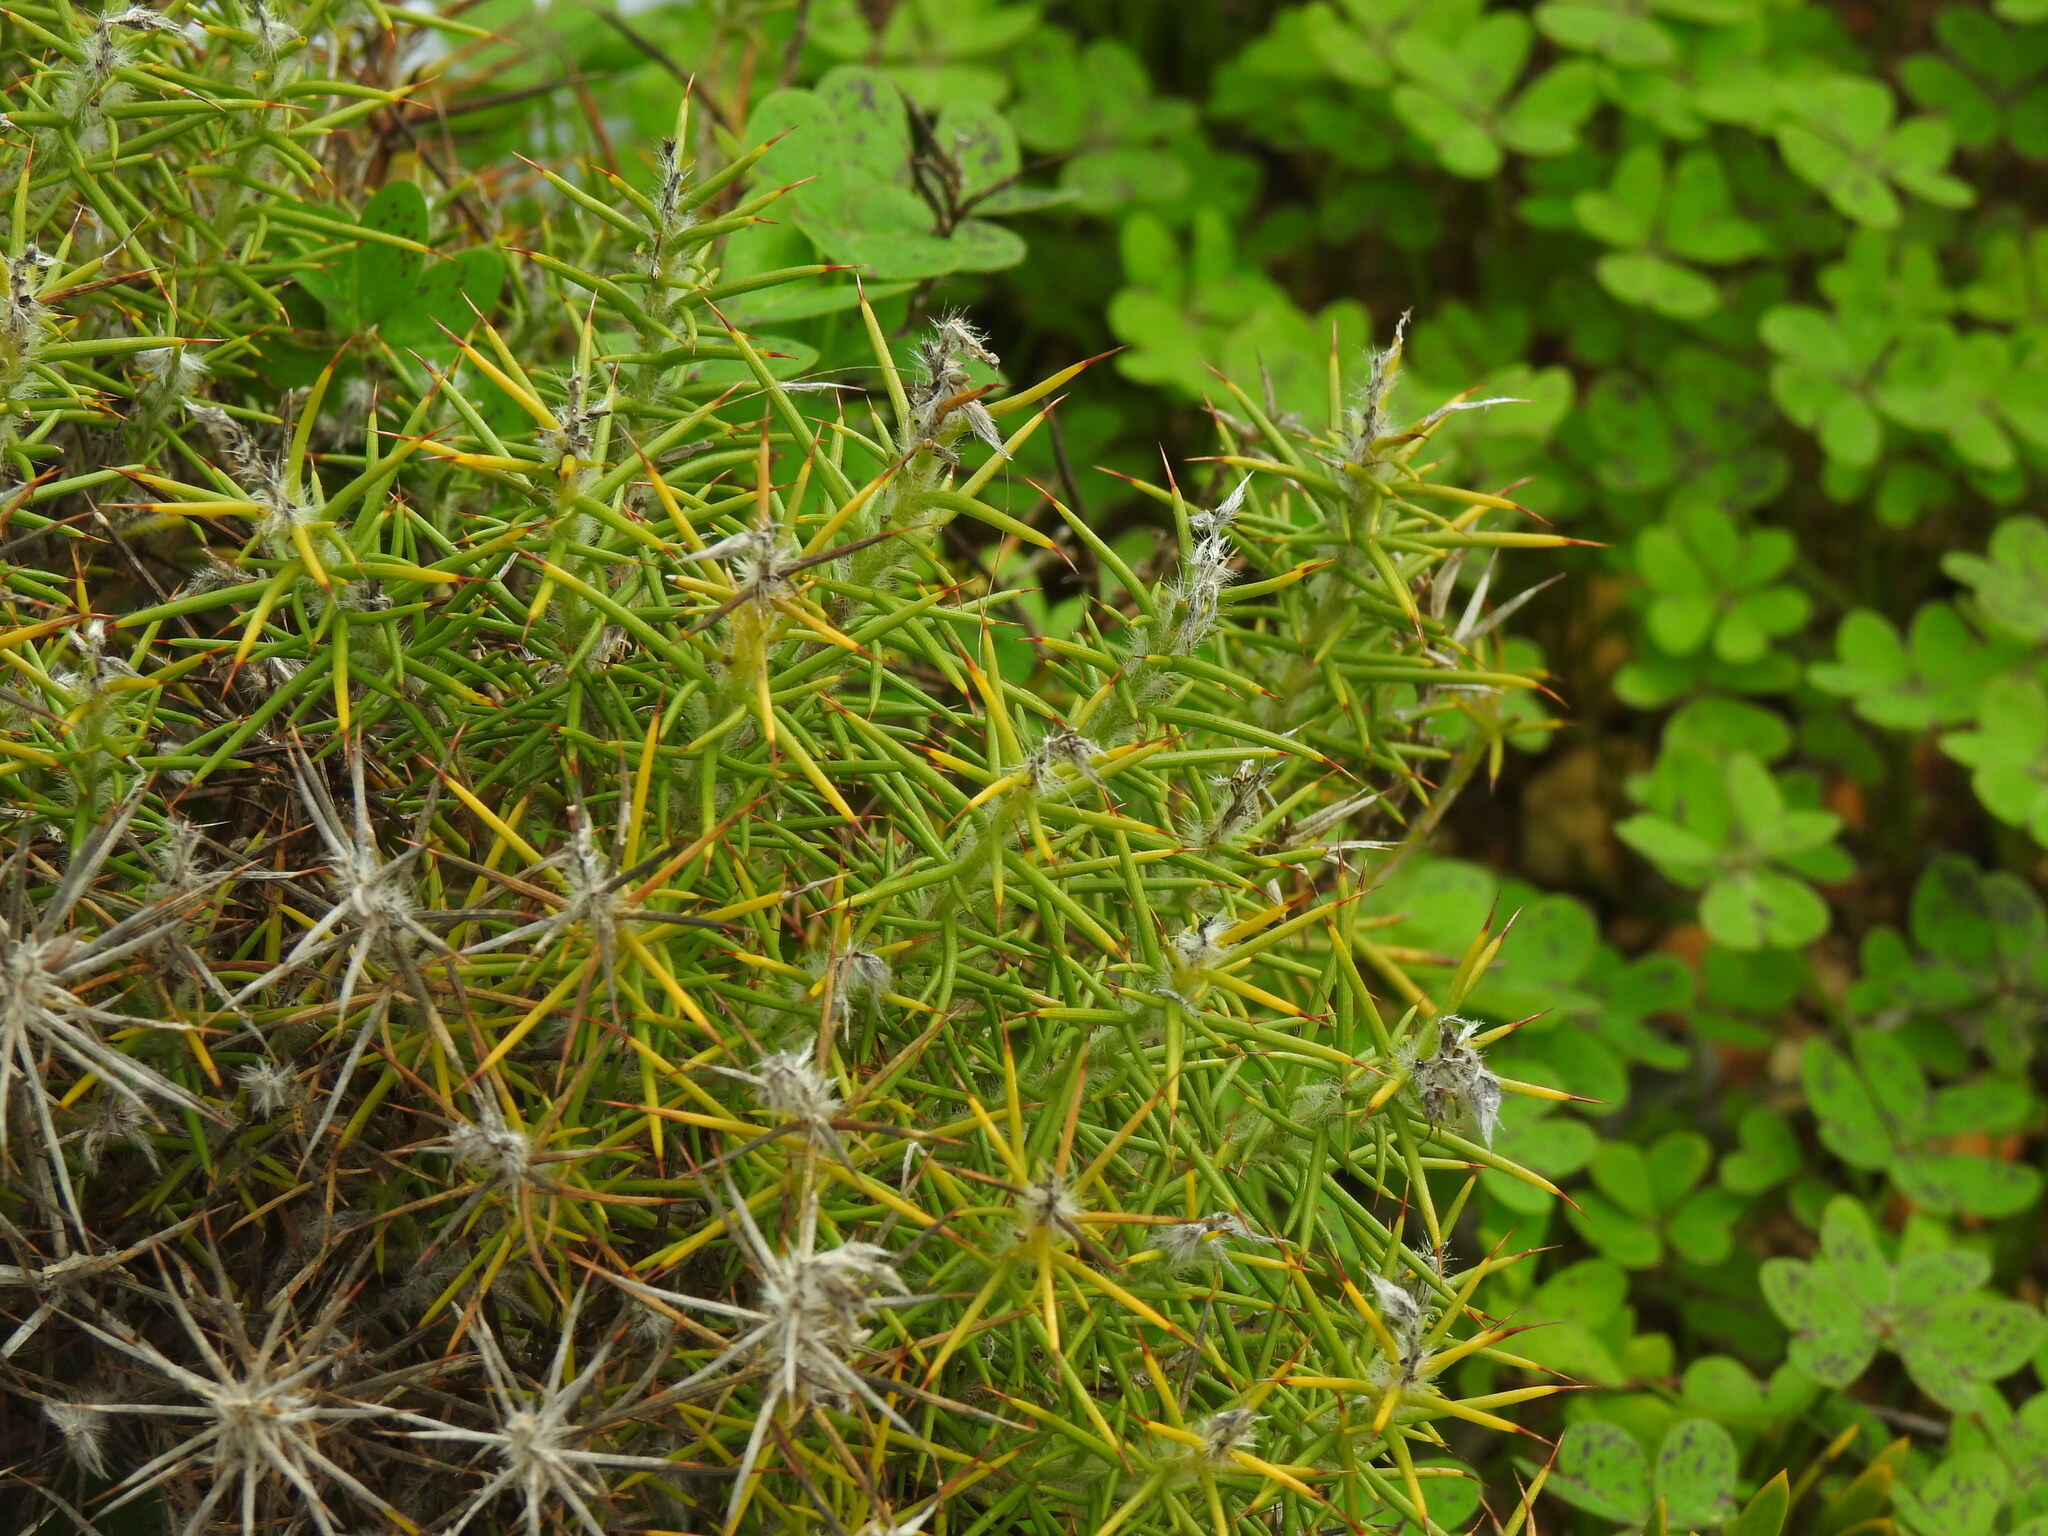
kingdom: Plantae
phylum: Tracheophyta
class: Magnoliopsida
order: Fabales
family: Fabaceae
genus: Genista
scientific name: Genista hirsuta
